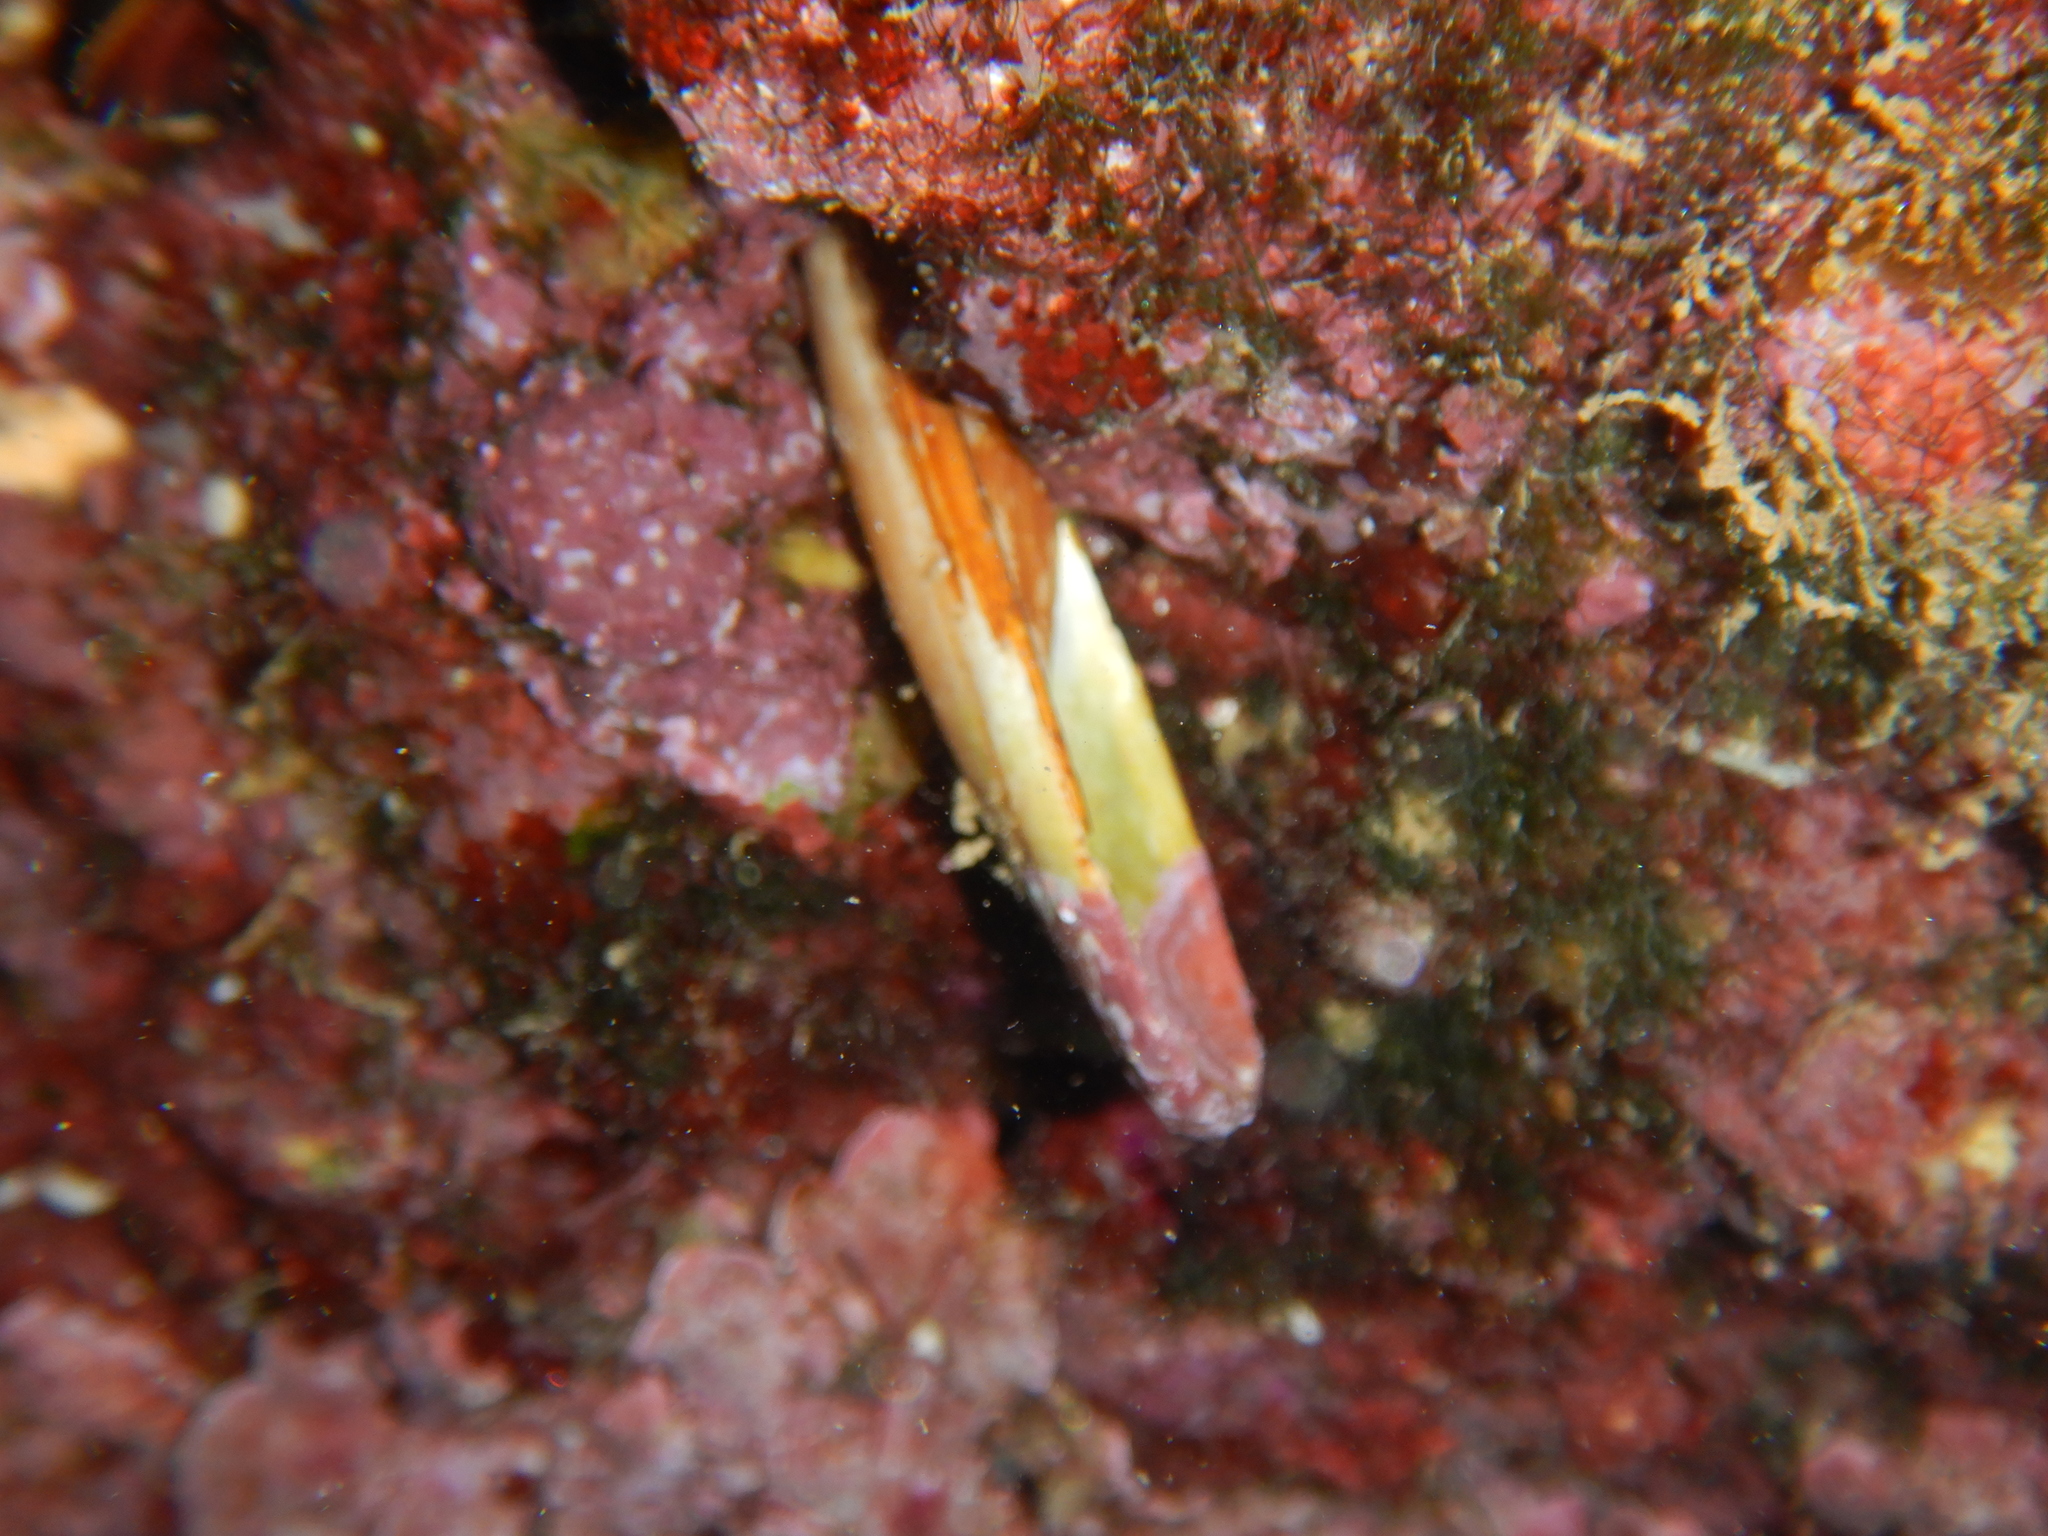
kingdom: Animalia
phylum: Mollusca
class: Bivalvia
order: Mytilida
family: Mytilidae
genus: Lithophaga
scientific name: Lithophaga lithophaga
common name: European date mussel
